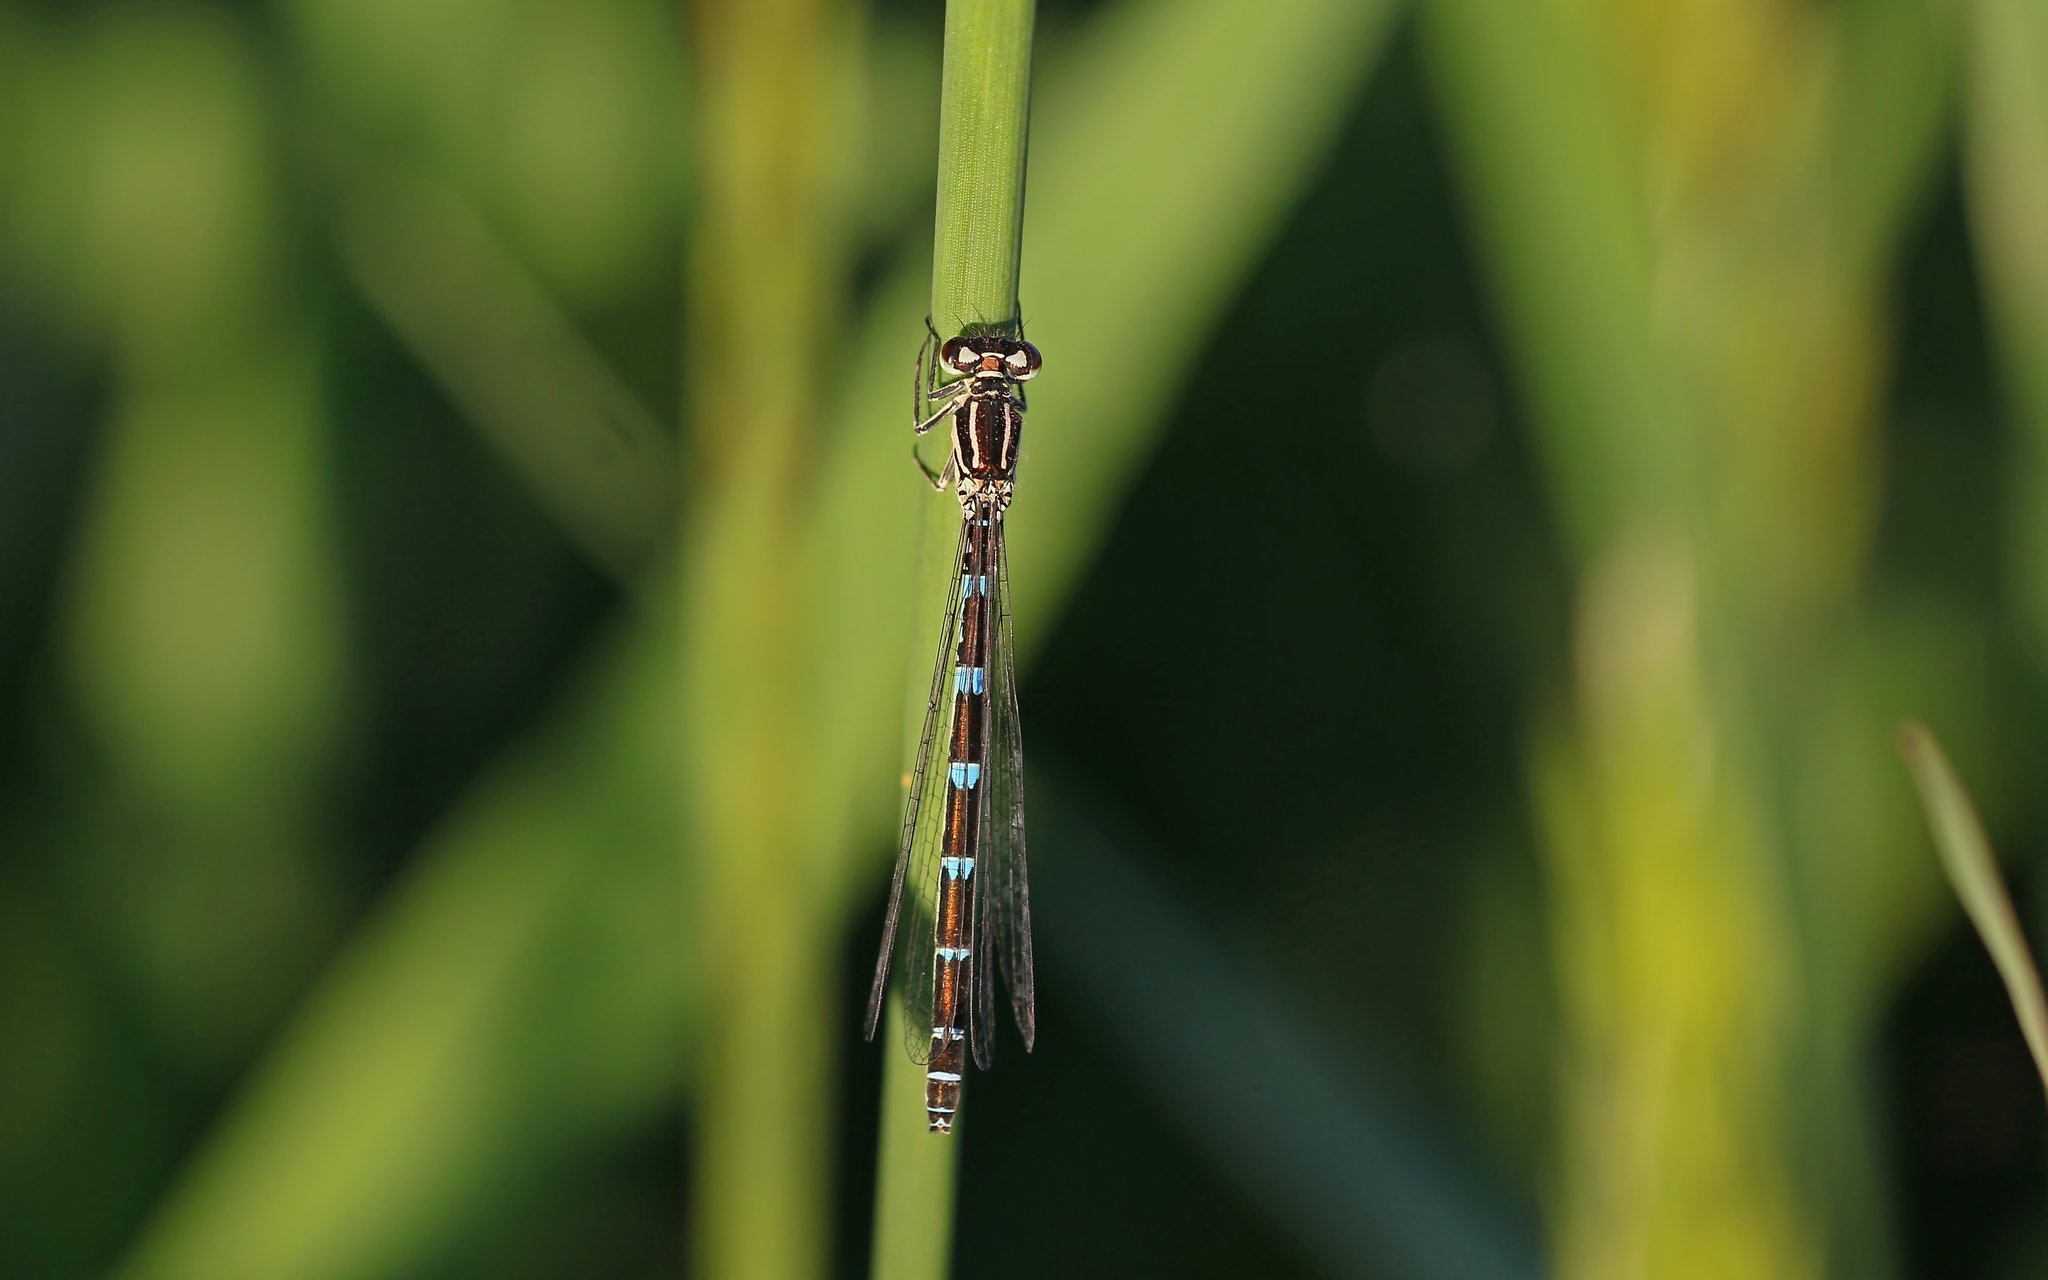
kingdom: Animalia
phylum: Arthropoda
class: Insecta
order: Odonata
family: Coenagrionidae
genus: Coenagrion
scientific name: Coenagrion ornatum
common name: Ornate bluet
